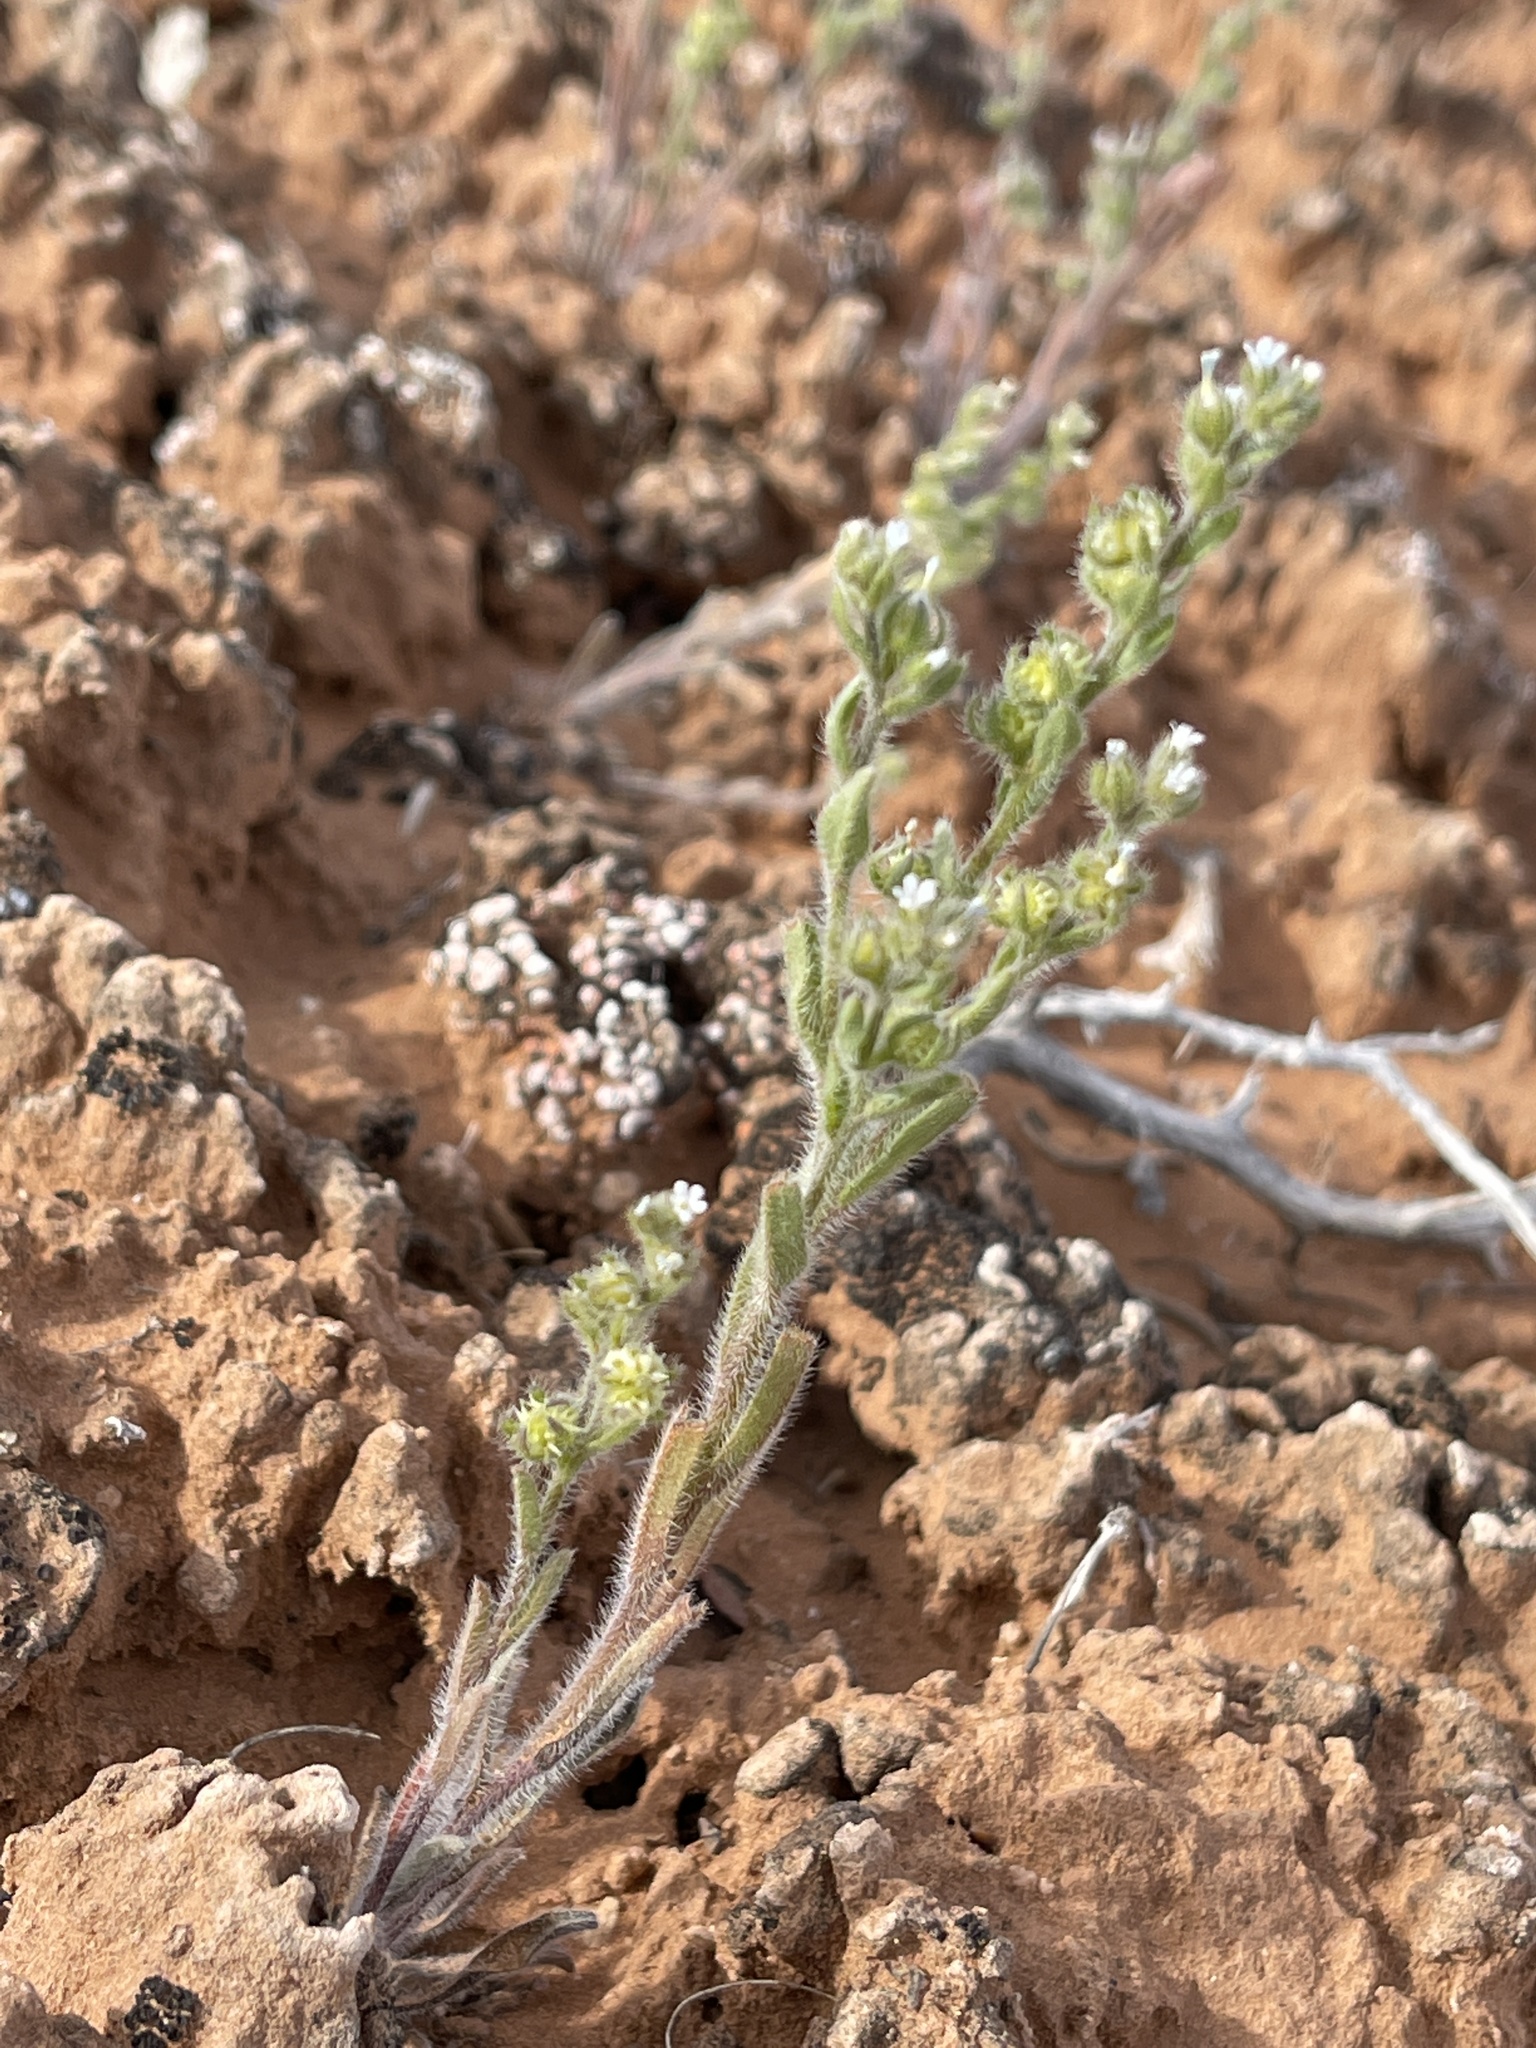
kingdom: Plantae
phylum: Tracheophyta
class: Magnoliopsida
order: Boraginales
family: Boraginaceae
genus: Lappula
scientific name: Lappula occidentalis
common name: Western stickseed
